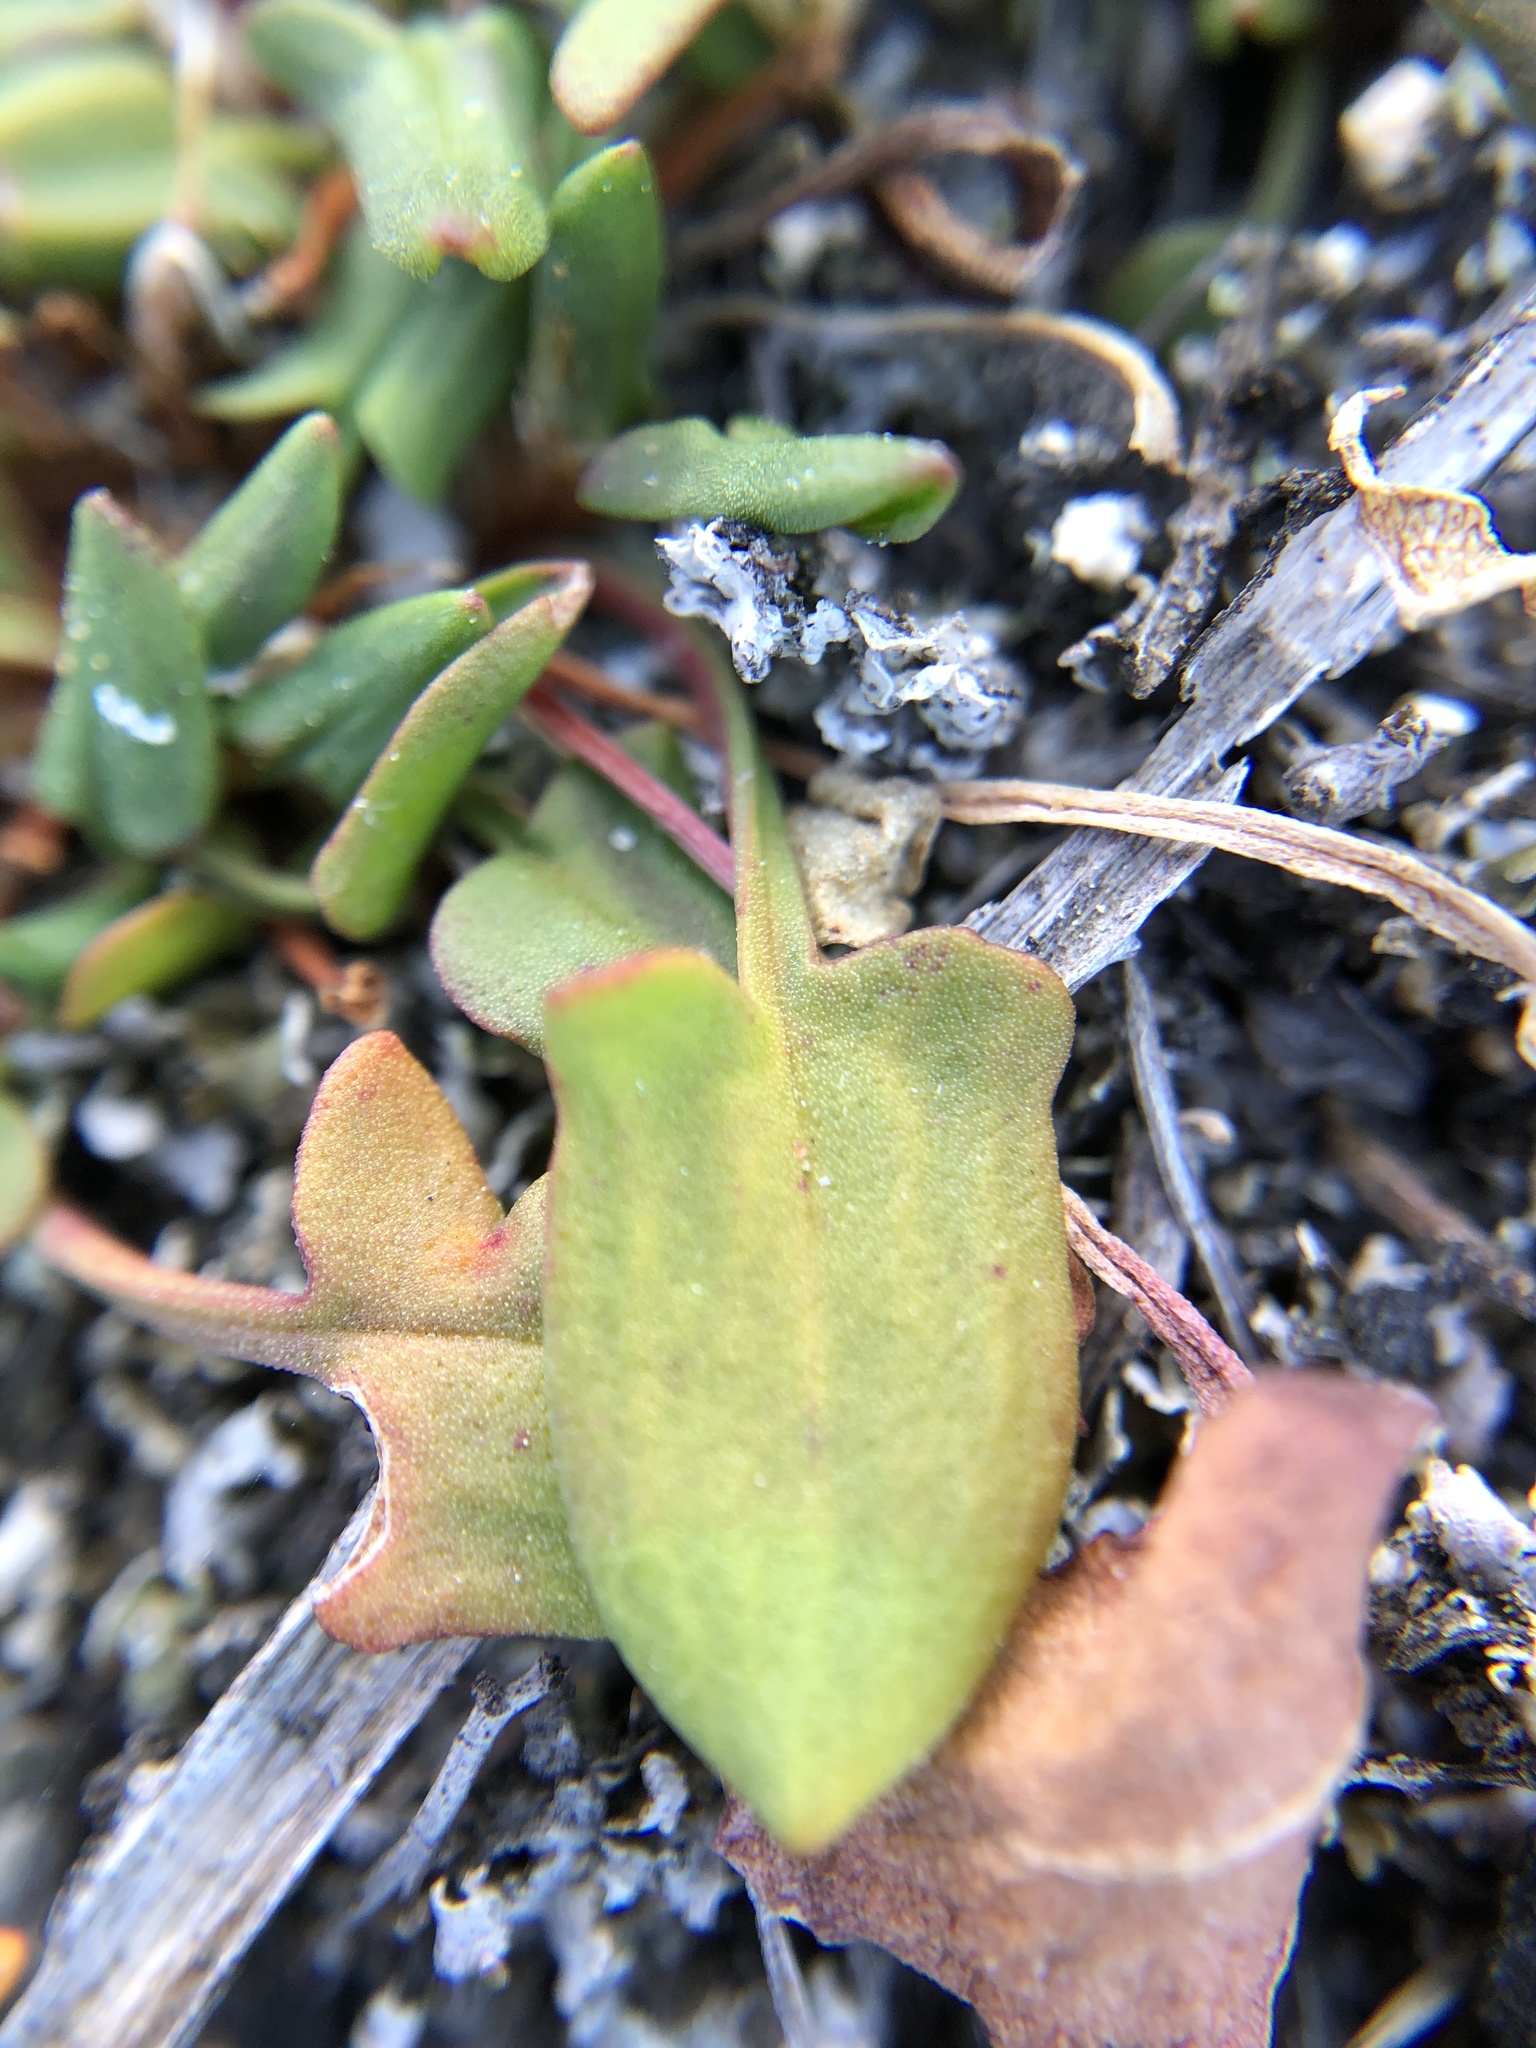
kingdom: Plantae
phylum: Tracheophyta
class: Magnoliopsida
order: Caryophyllales
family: Polygonaceae
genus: Rumex
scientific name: Rumex acetosella
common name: Common sheep sorrel
